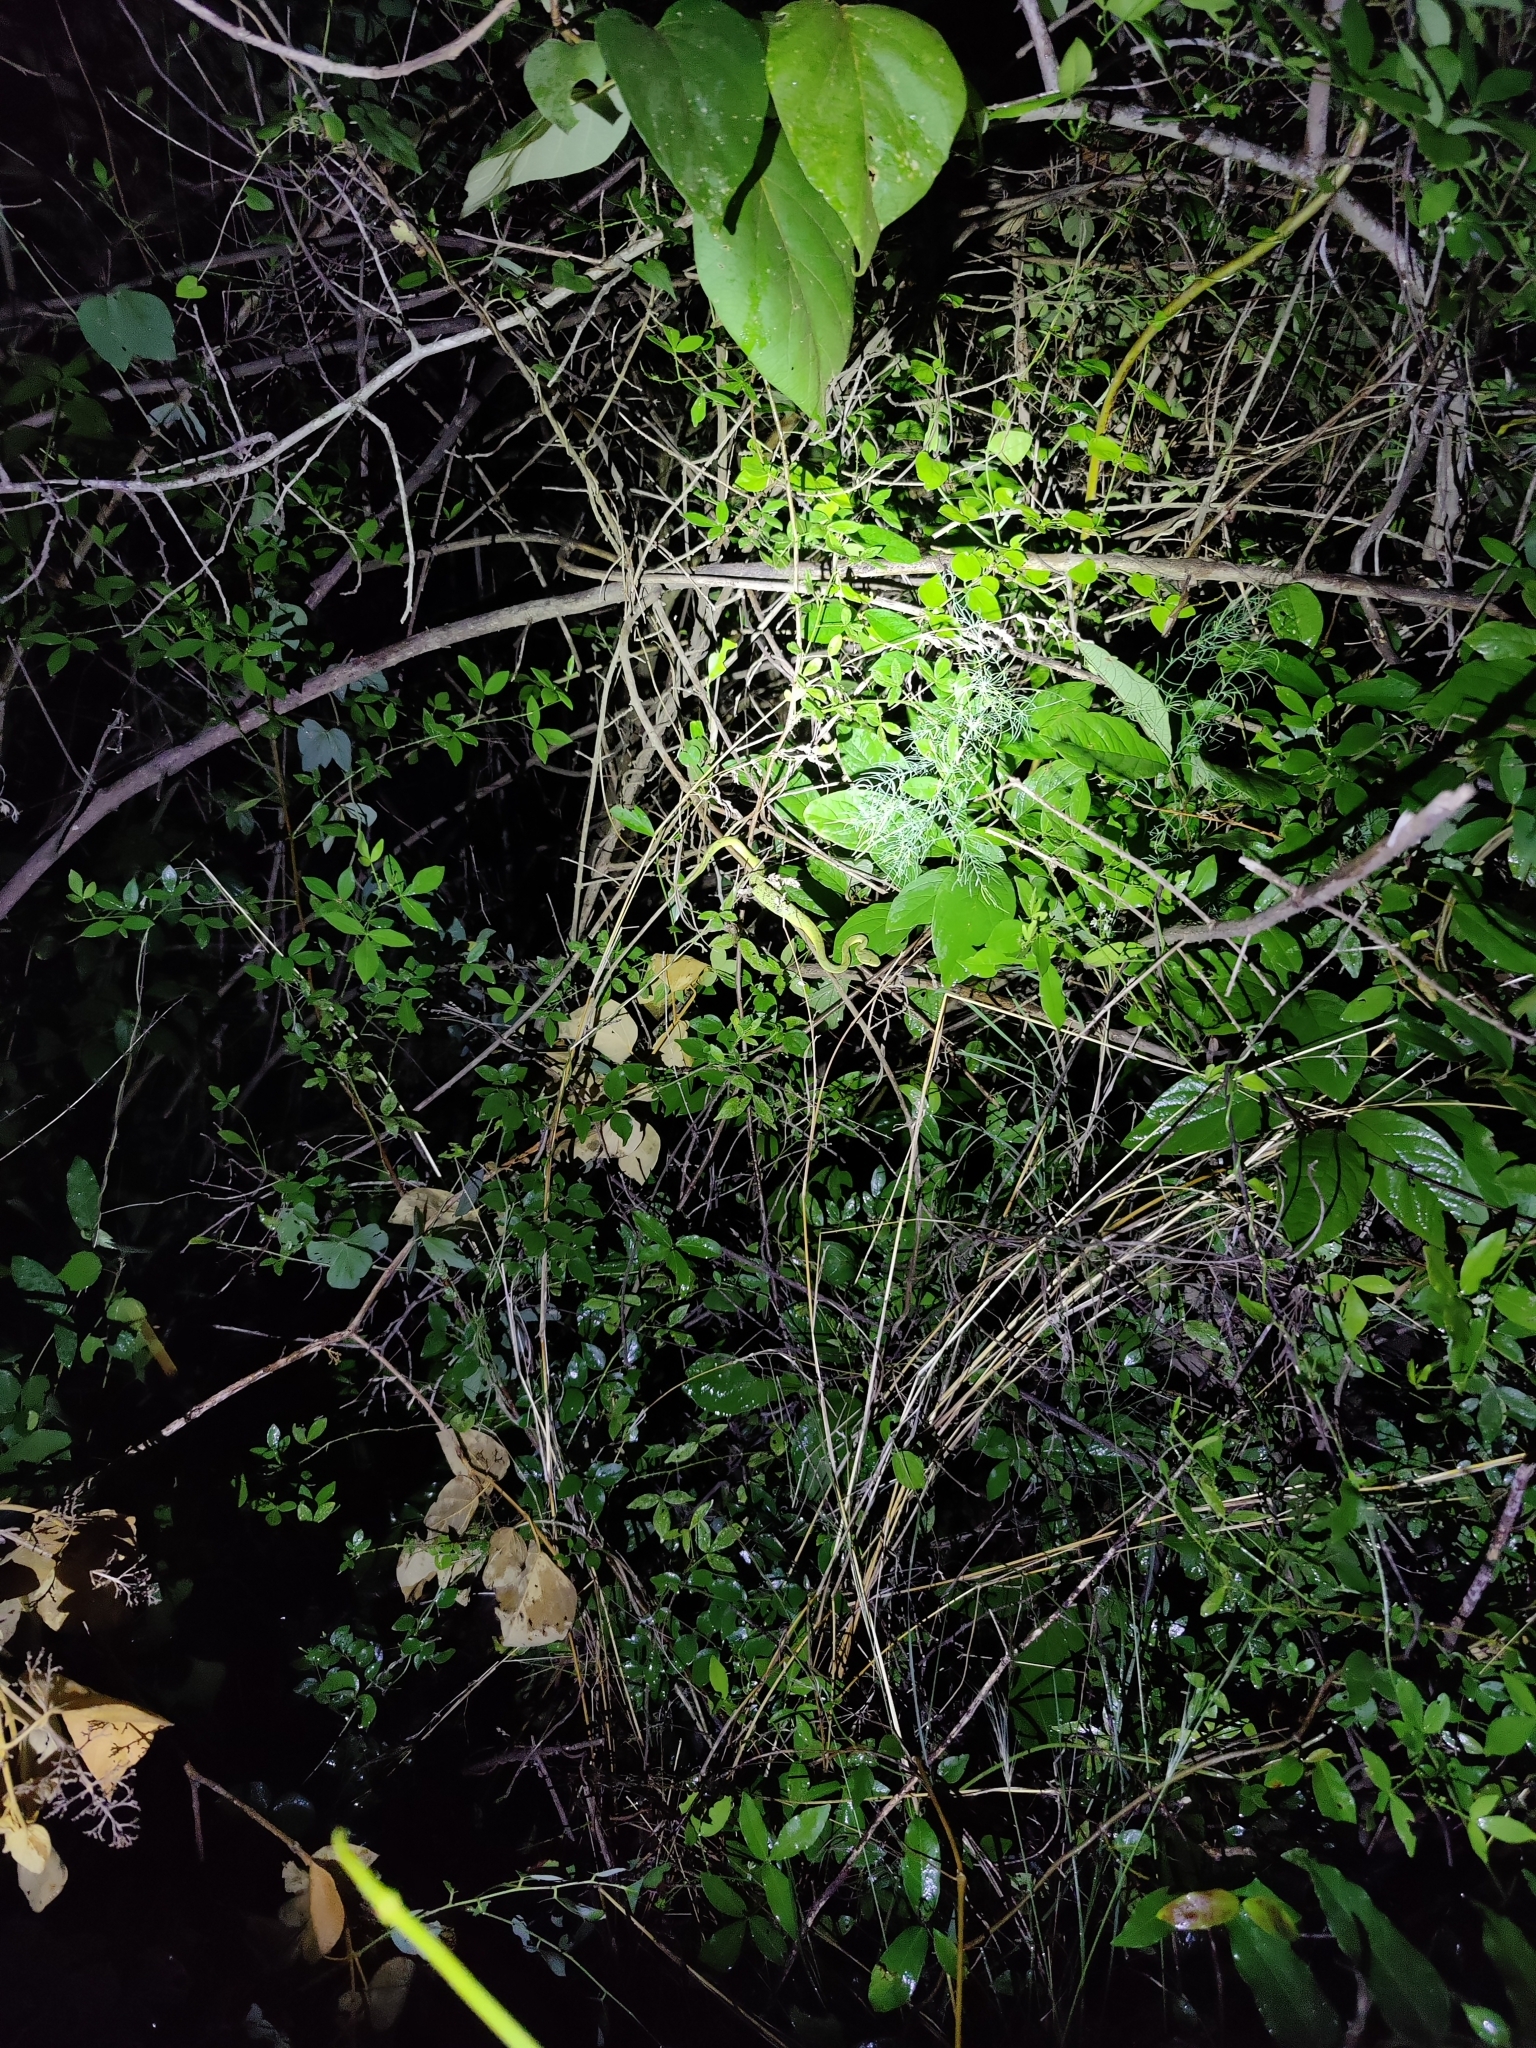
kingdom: Animalia
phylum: Chordata
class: Squamata
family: Viperidae
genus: Craspedocephalus
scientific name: Craspedocephalus gramineus
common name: Common bamboo viper
